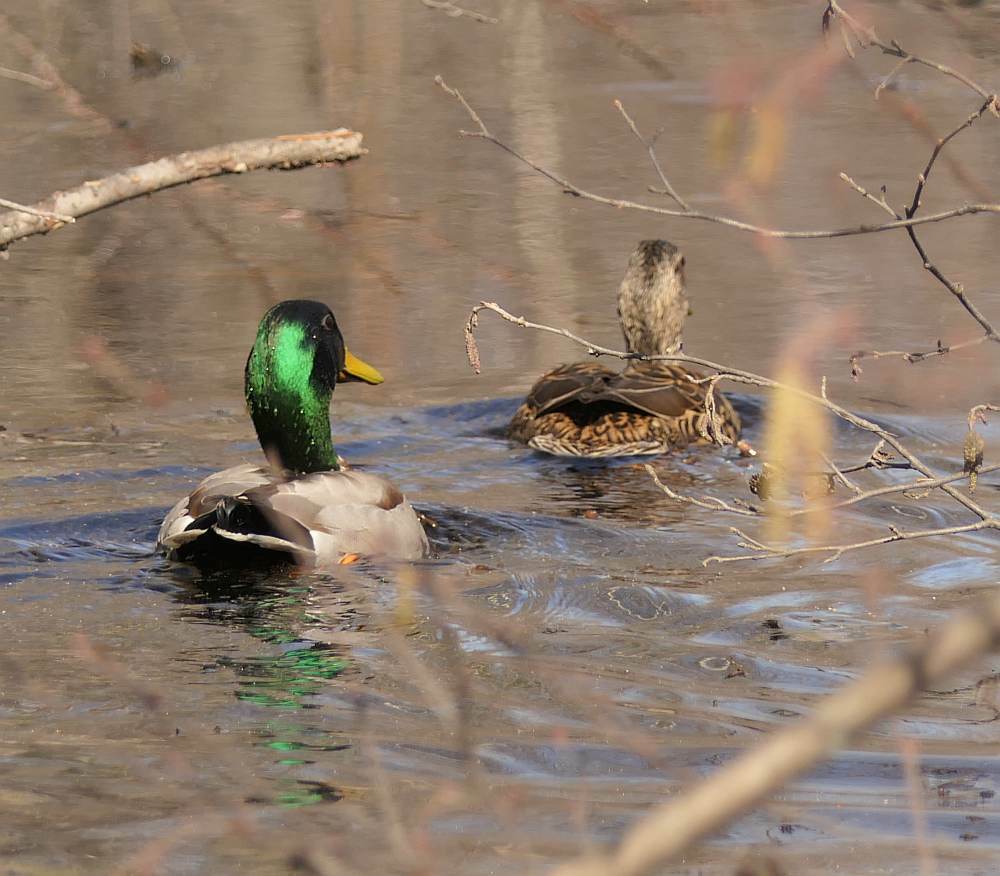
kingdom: Animalia
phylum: Chordata
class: Aves
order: Anseriformes
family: Anatidae
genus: Anas
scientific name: Anas platyrhynchos
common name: Mallard
